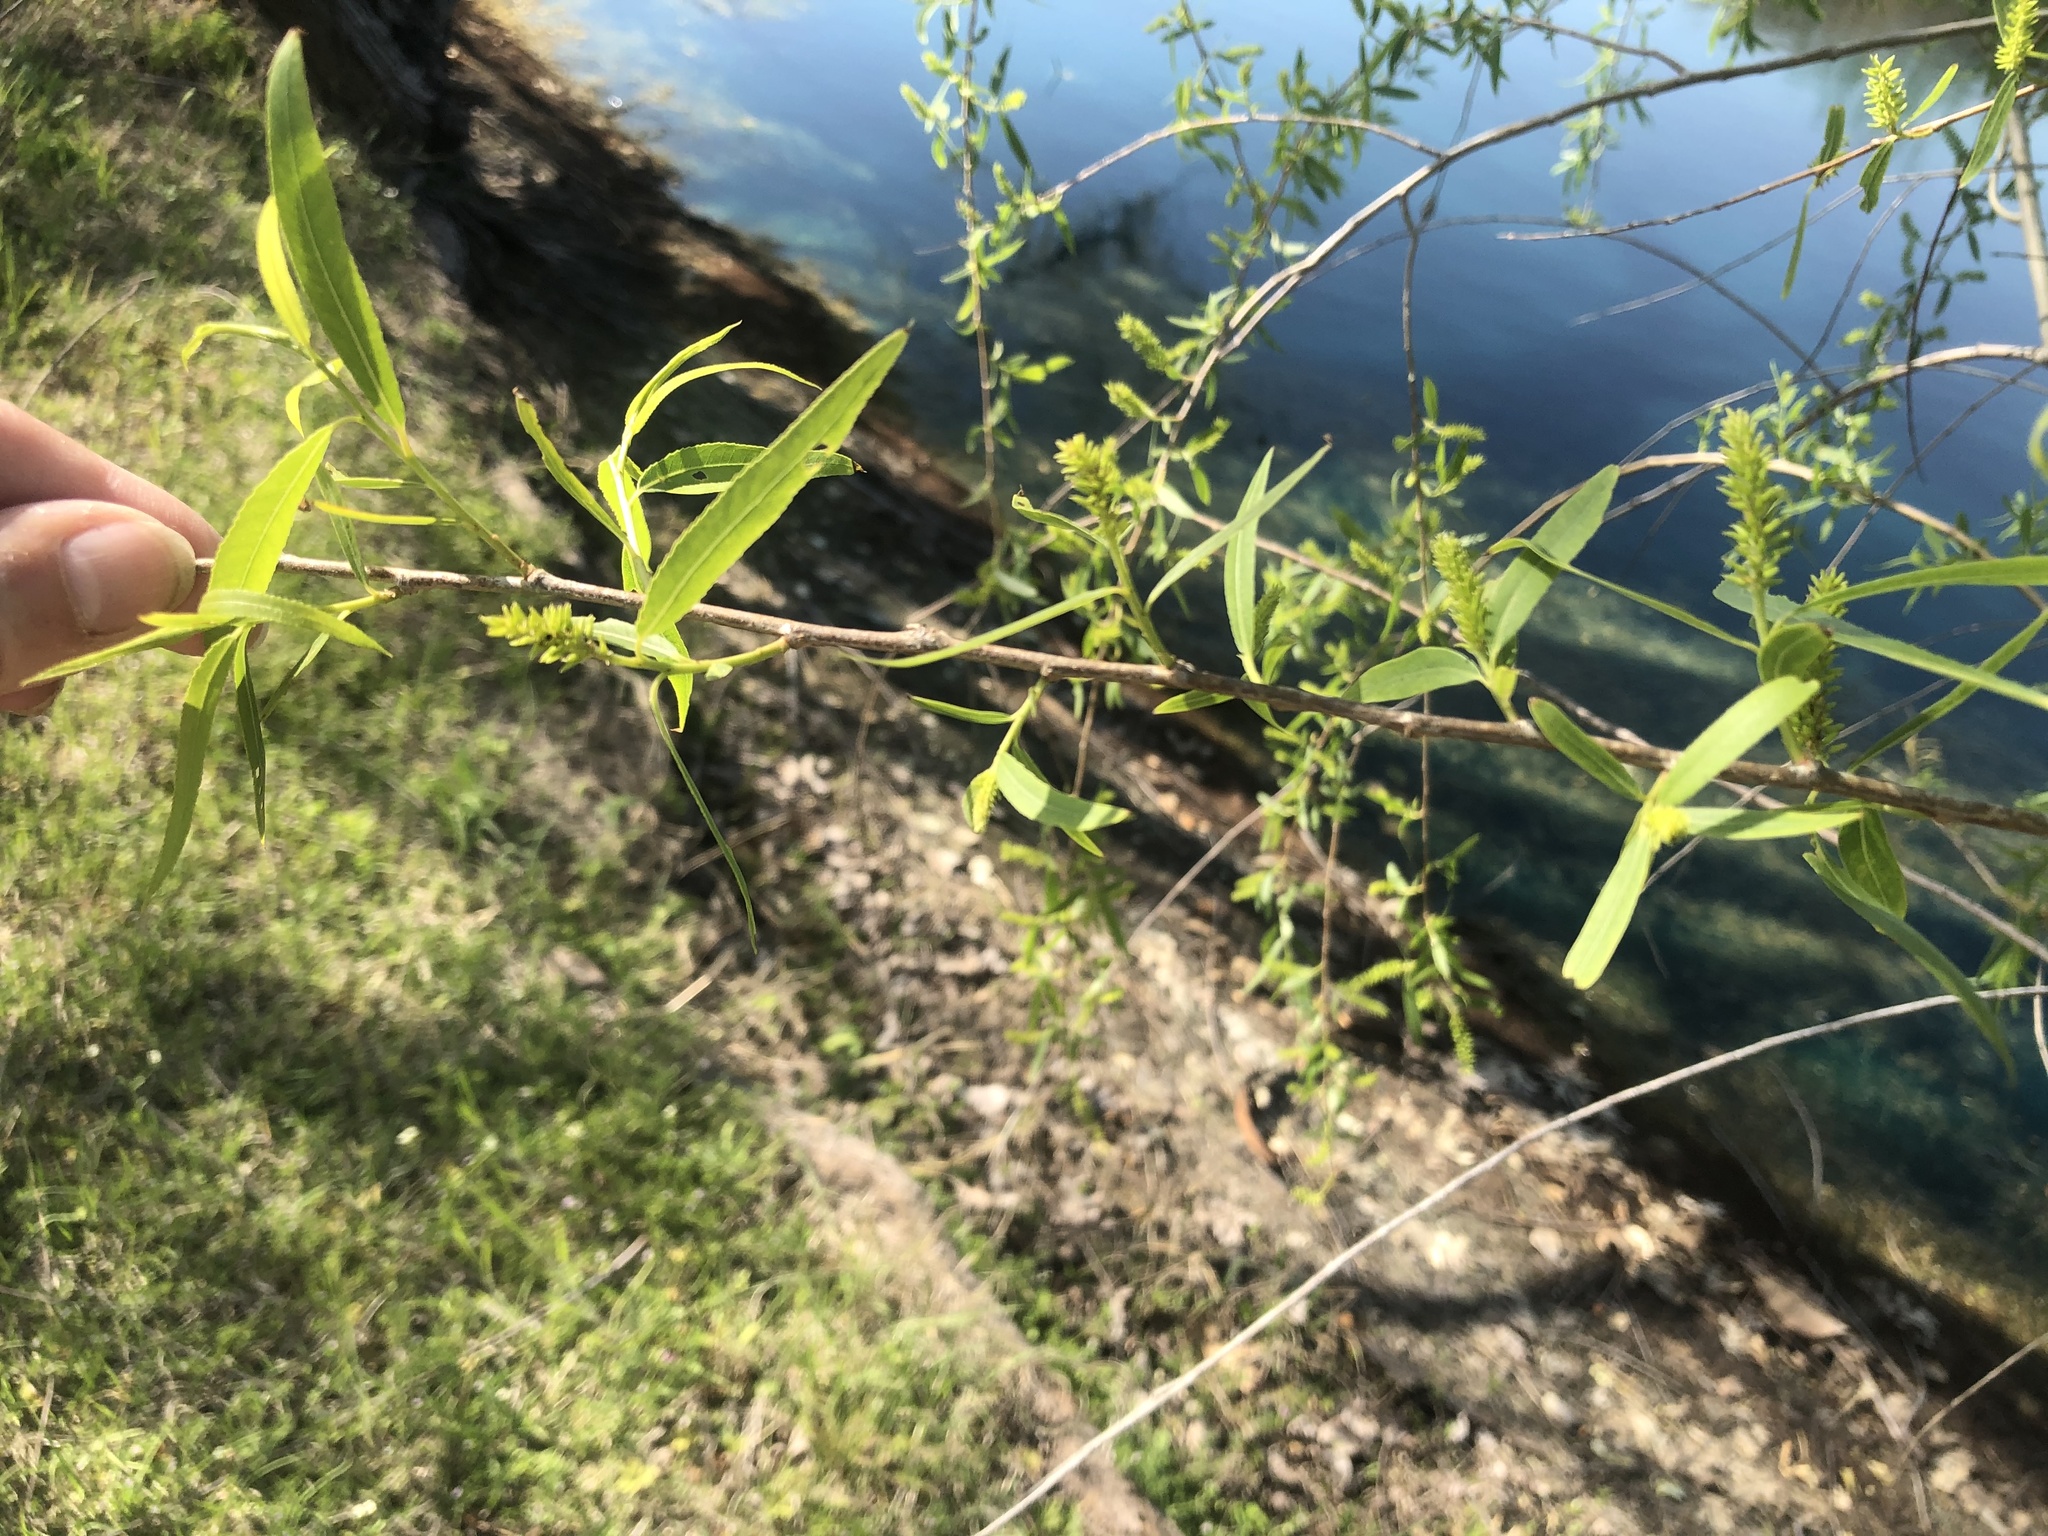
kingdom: Plantae
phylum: Tracheophyta
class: Magnoliopsida
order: Malpighiales
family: Salicaceae
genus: Salix
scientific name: Salix nigra
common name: Black willow
